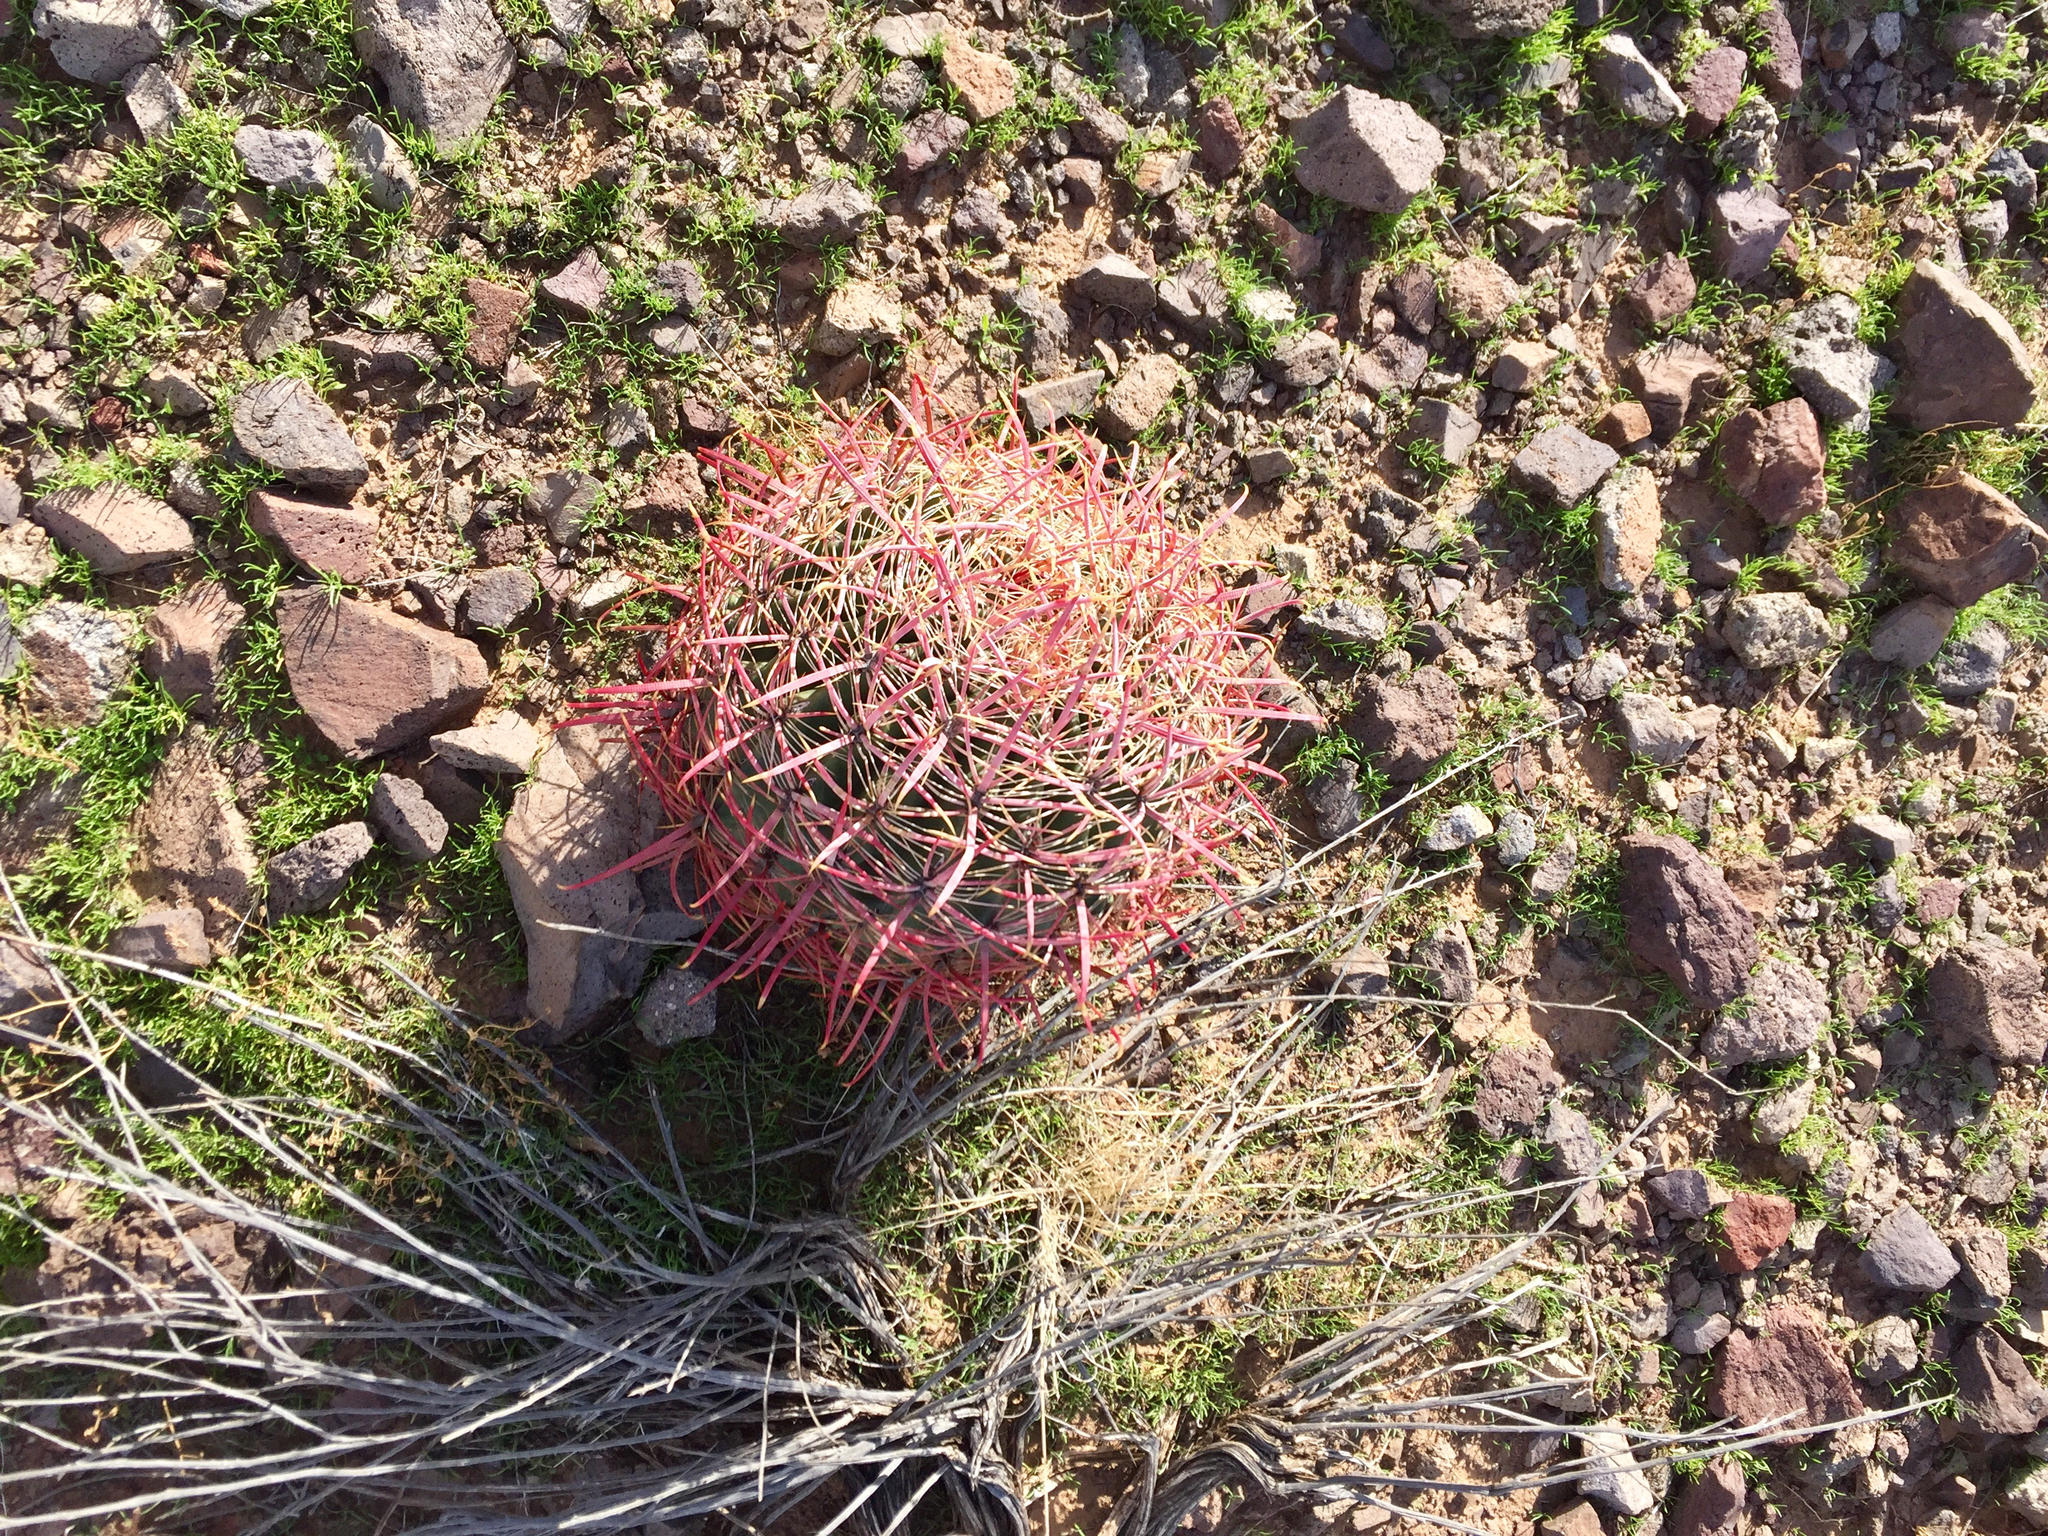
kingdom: Plantae
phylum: Tracheophyta
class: Magnoliopsida
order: Caryophyllales
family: Cactaceae
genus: Ferocactus
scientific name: Ferocactus cylindraceus
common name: California barrel cactus
